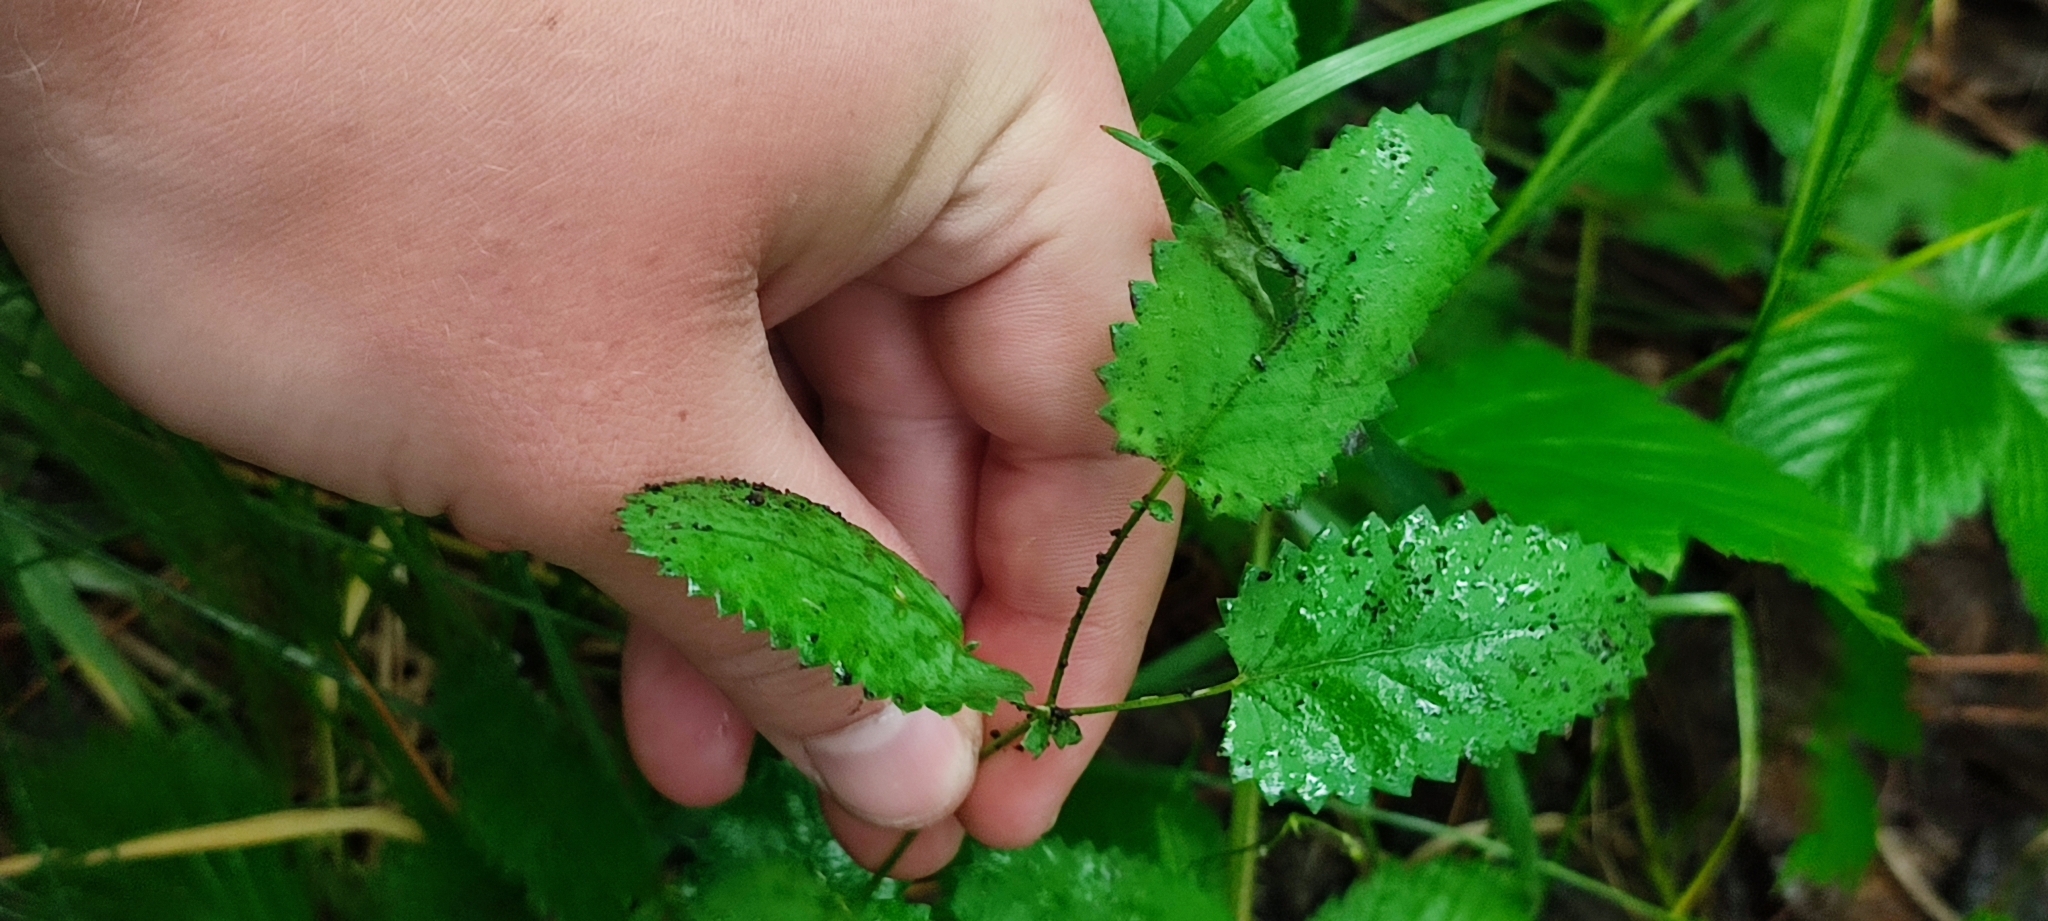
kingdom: Plantae
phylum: Tracheophyta
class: Magnoliopsida
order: Rosales
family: Rosaceae
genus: Sanguisorba
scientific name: Sanguisorba officinalis
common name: Great burnet
